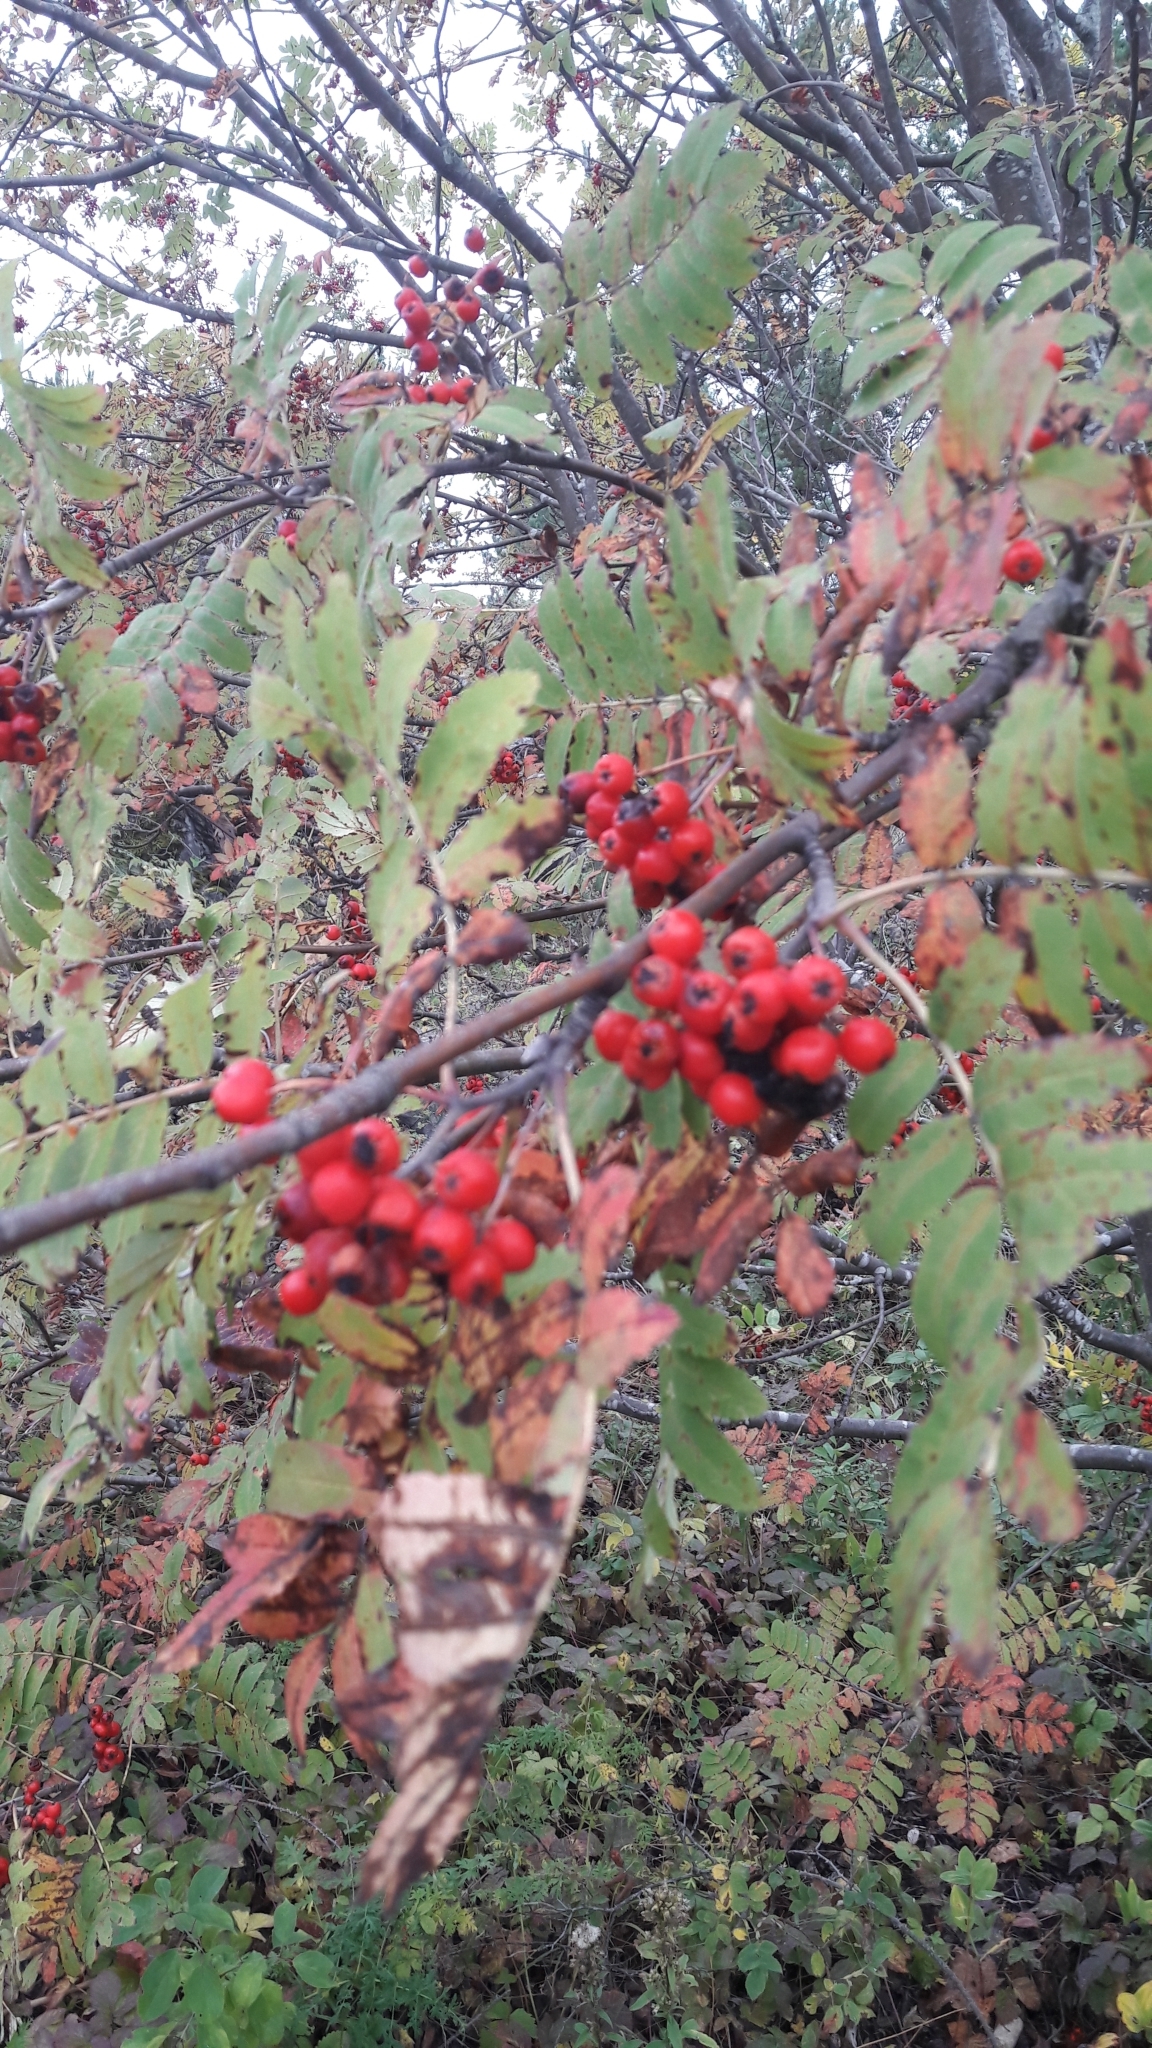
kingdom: Plantae
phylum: Tracheophyta
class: Magnoliopsida
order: Rosales
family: Rosaceae
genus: Sorbus
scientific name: Sorbus aucuparia
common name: Rowan
